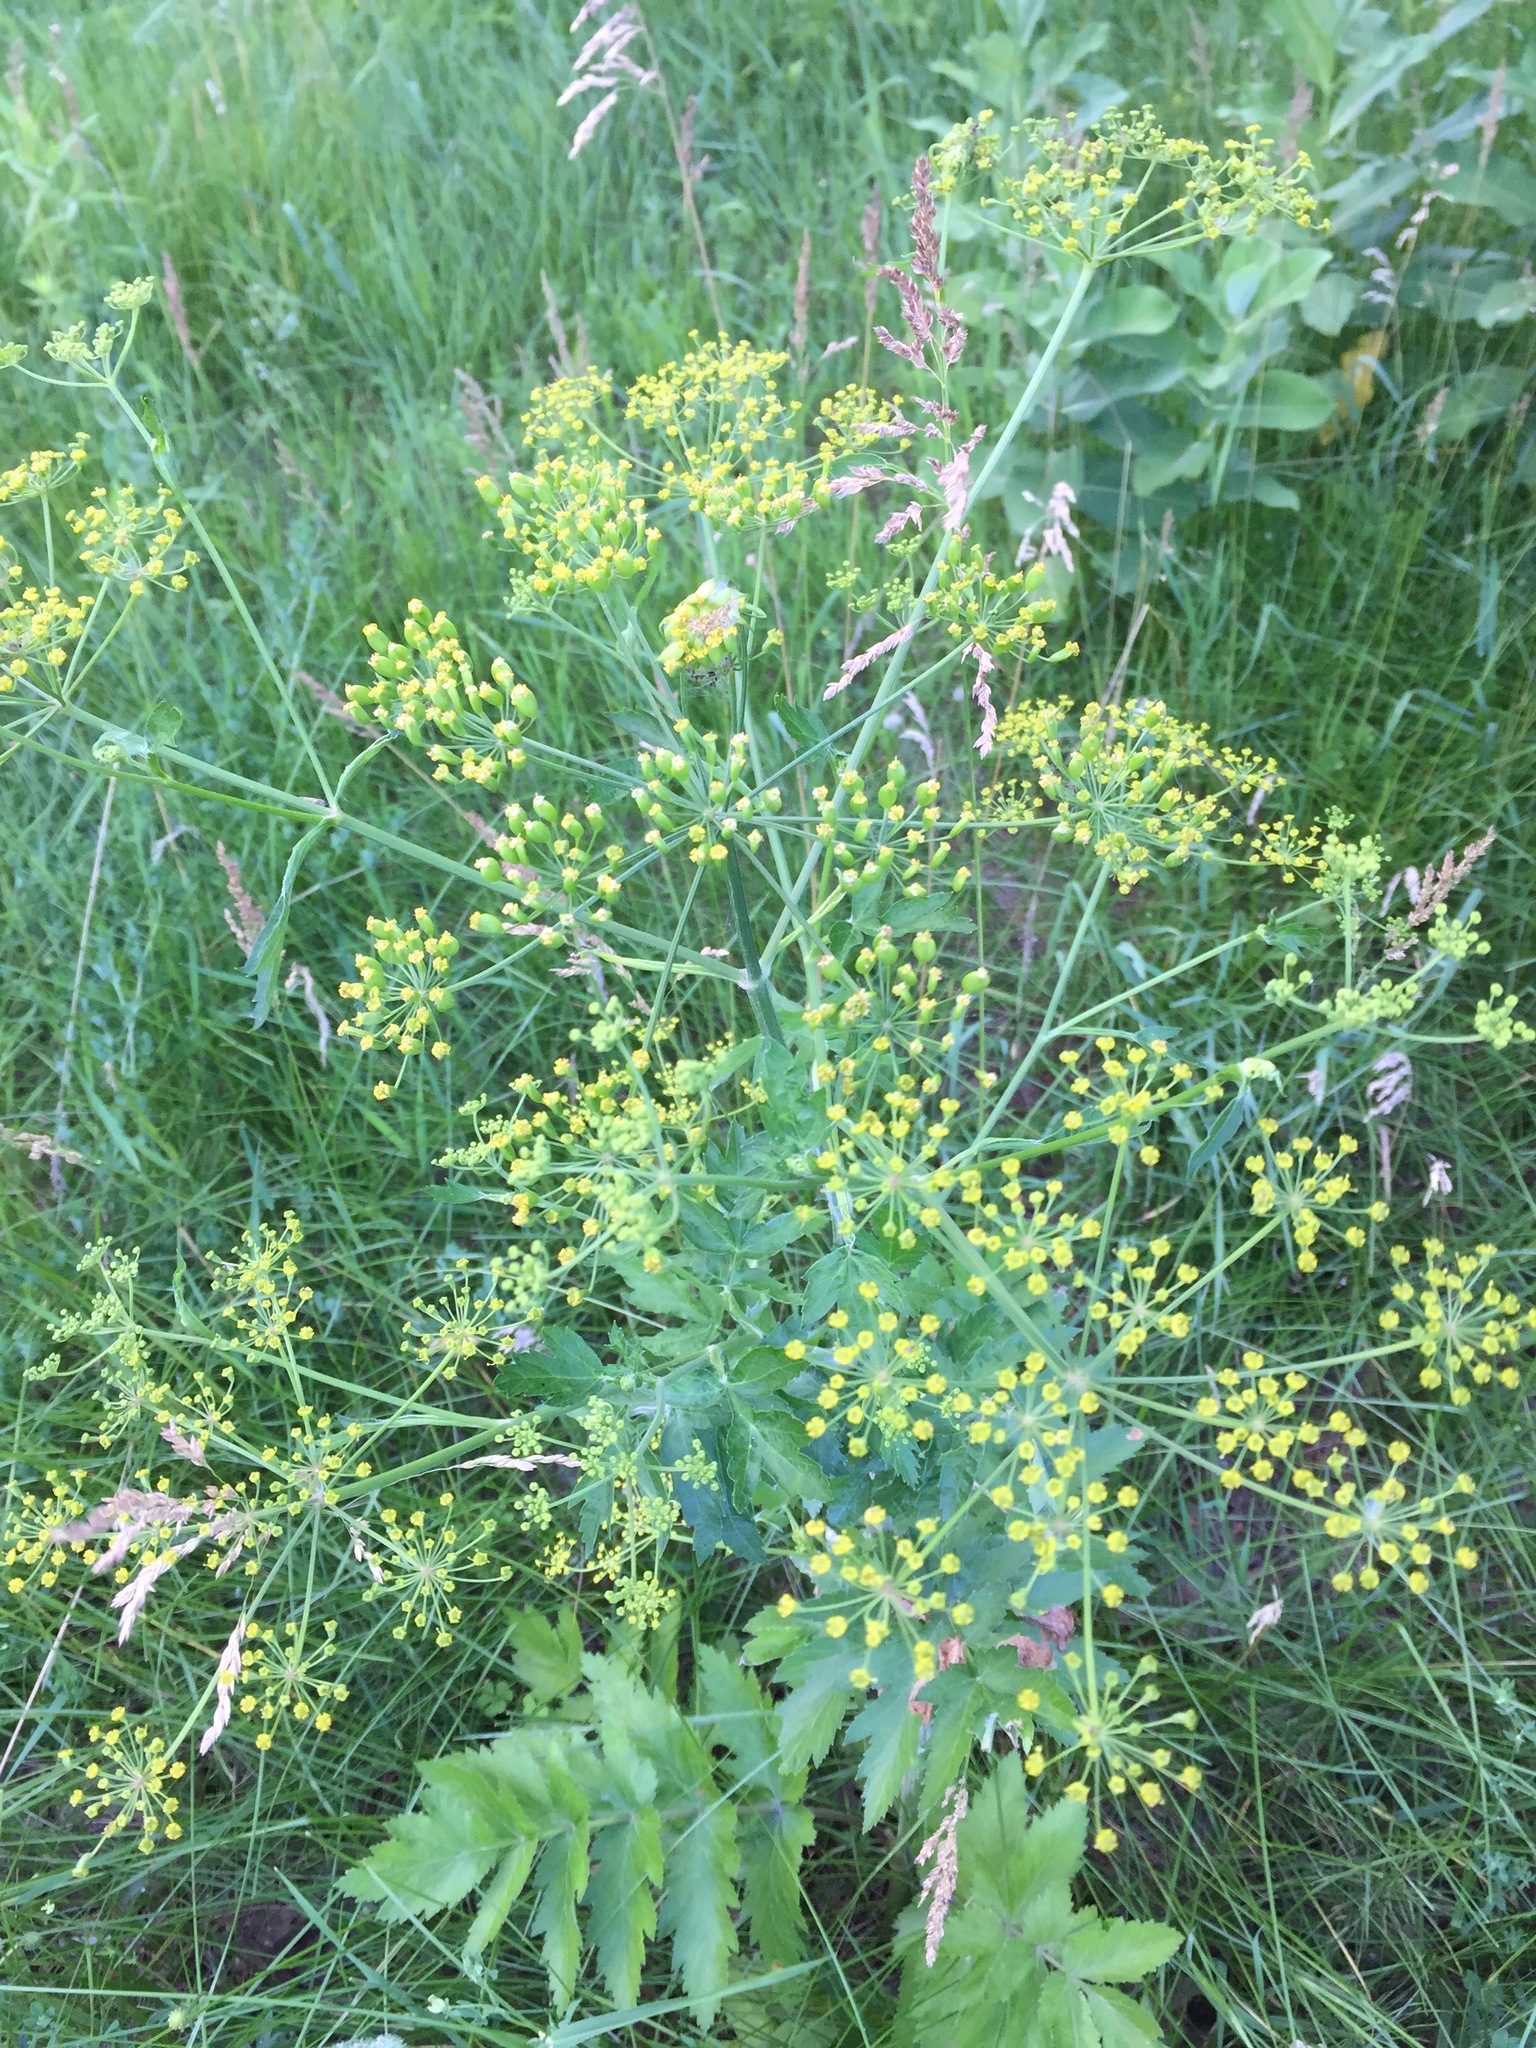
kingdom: Plantae
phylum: Tracheophyta
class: Magnoliopsida
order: Apiales
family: Apiaceae
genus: Pastinaca
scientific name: Pastinaca sativa
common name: Wild parsnip
